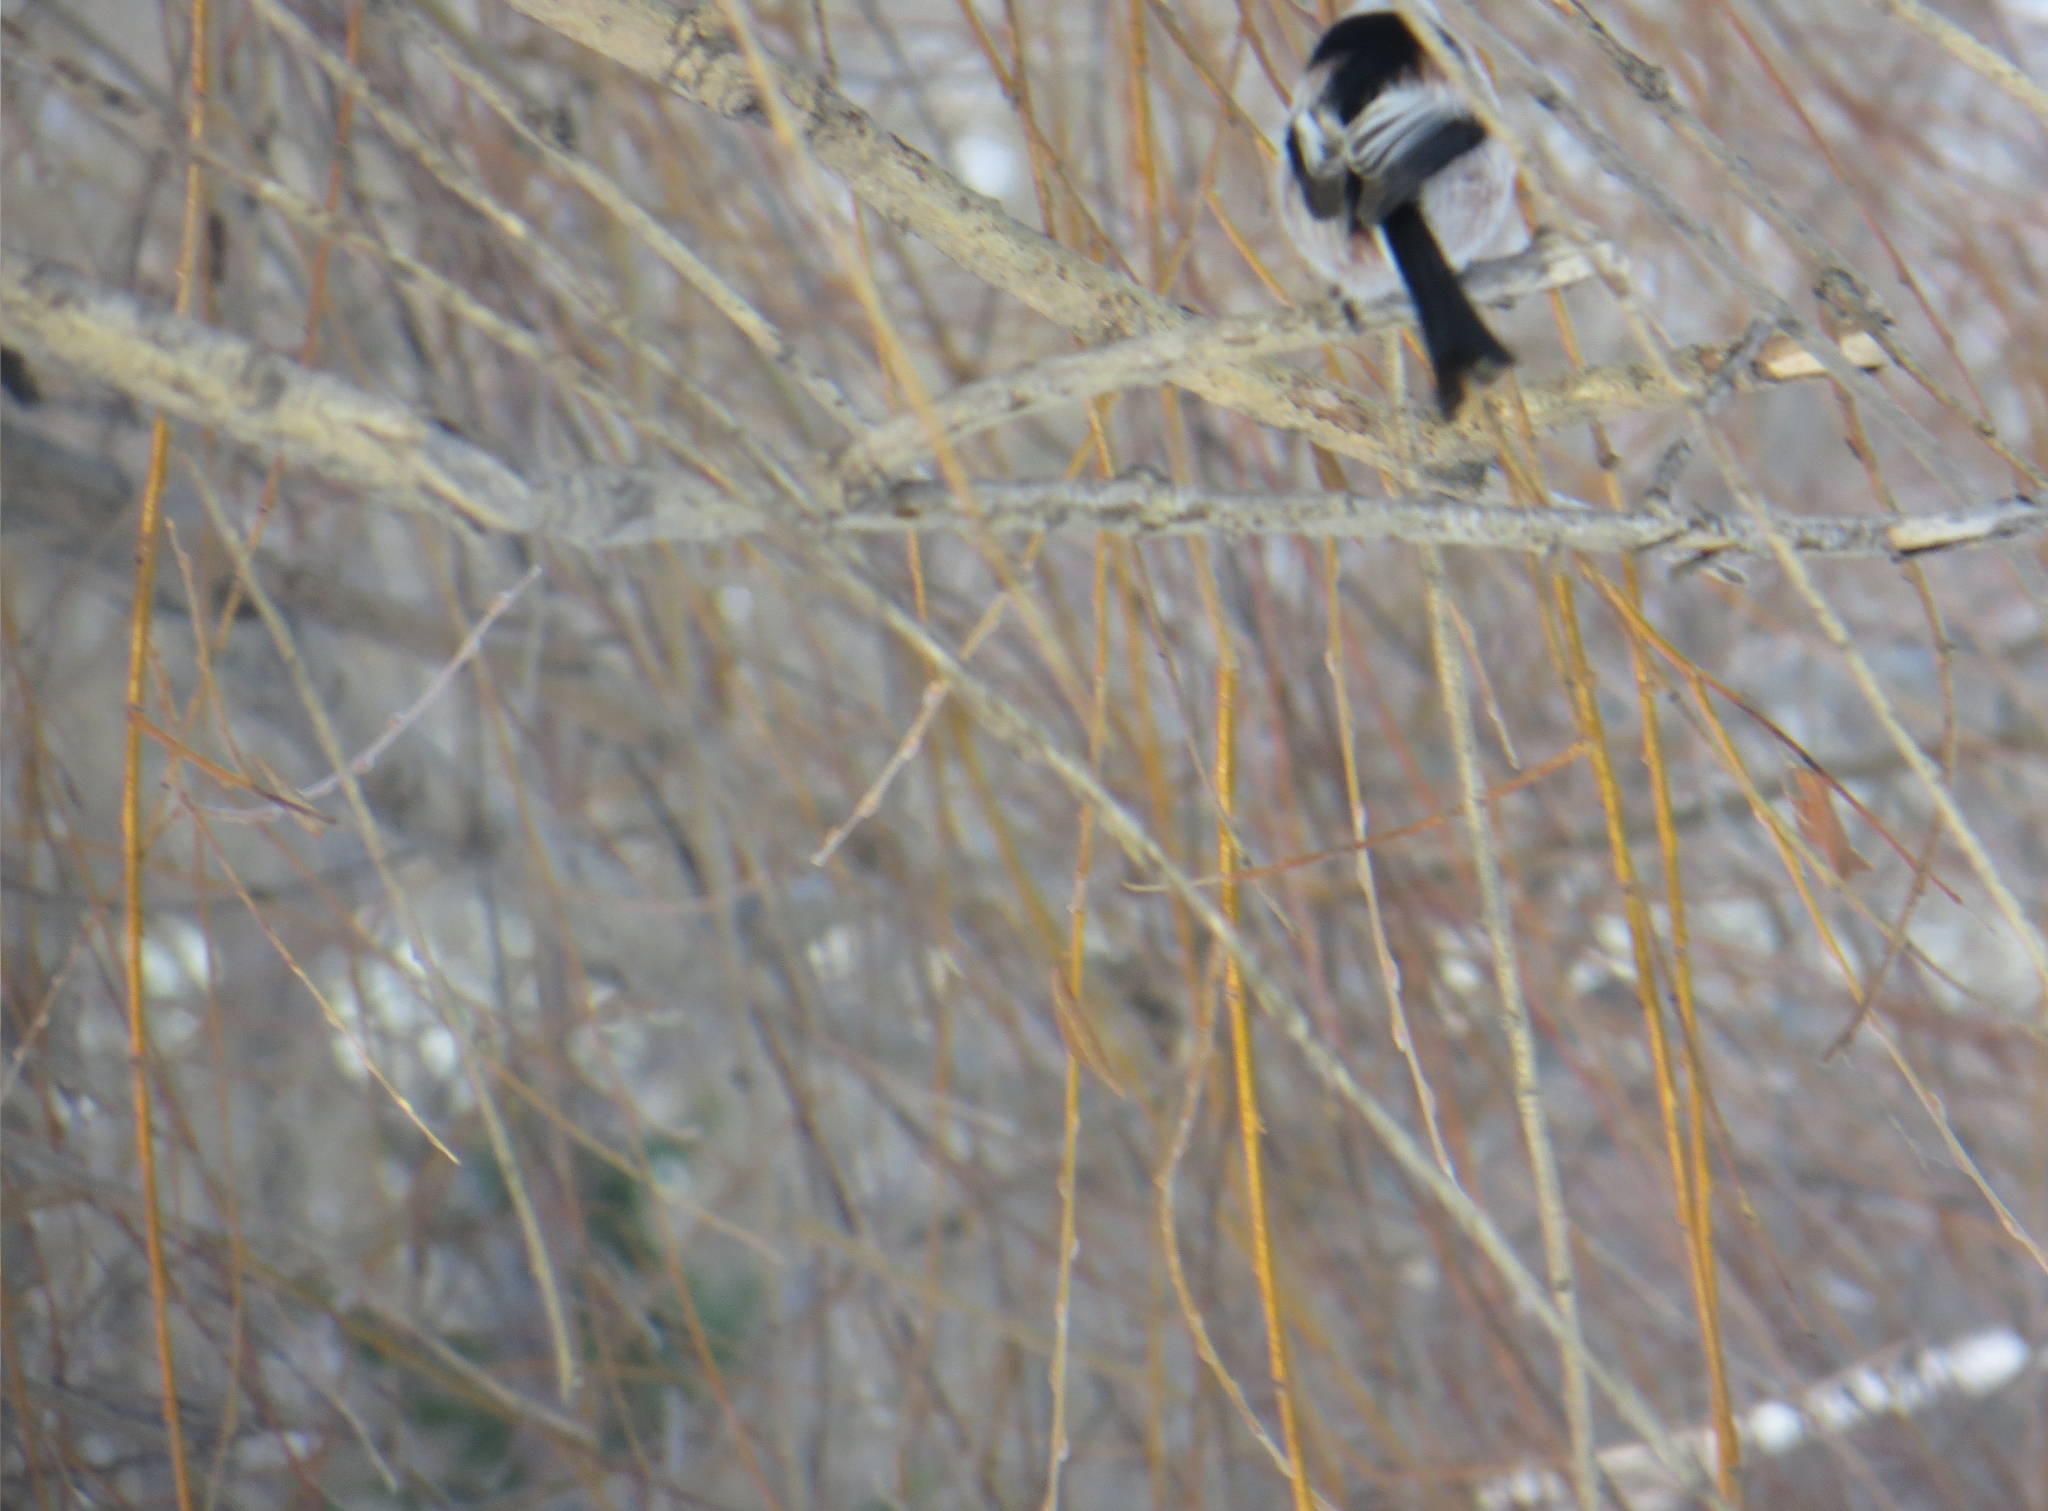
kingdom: Animalia
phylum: Chordata
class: Aves
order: Passeriformes
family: Aegithalidae
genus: Aegithalos
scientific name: Aegithalos caudatus
